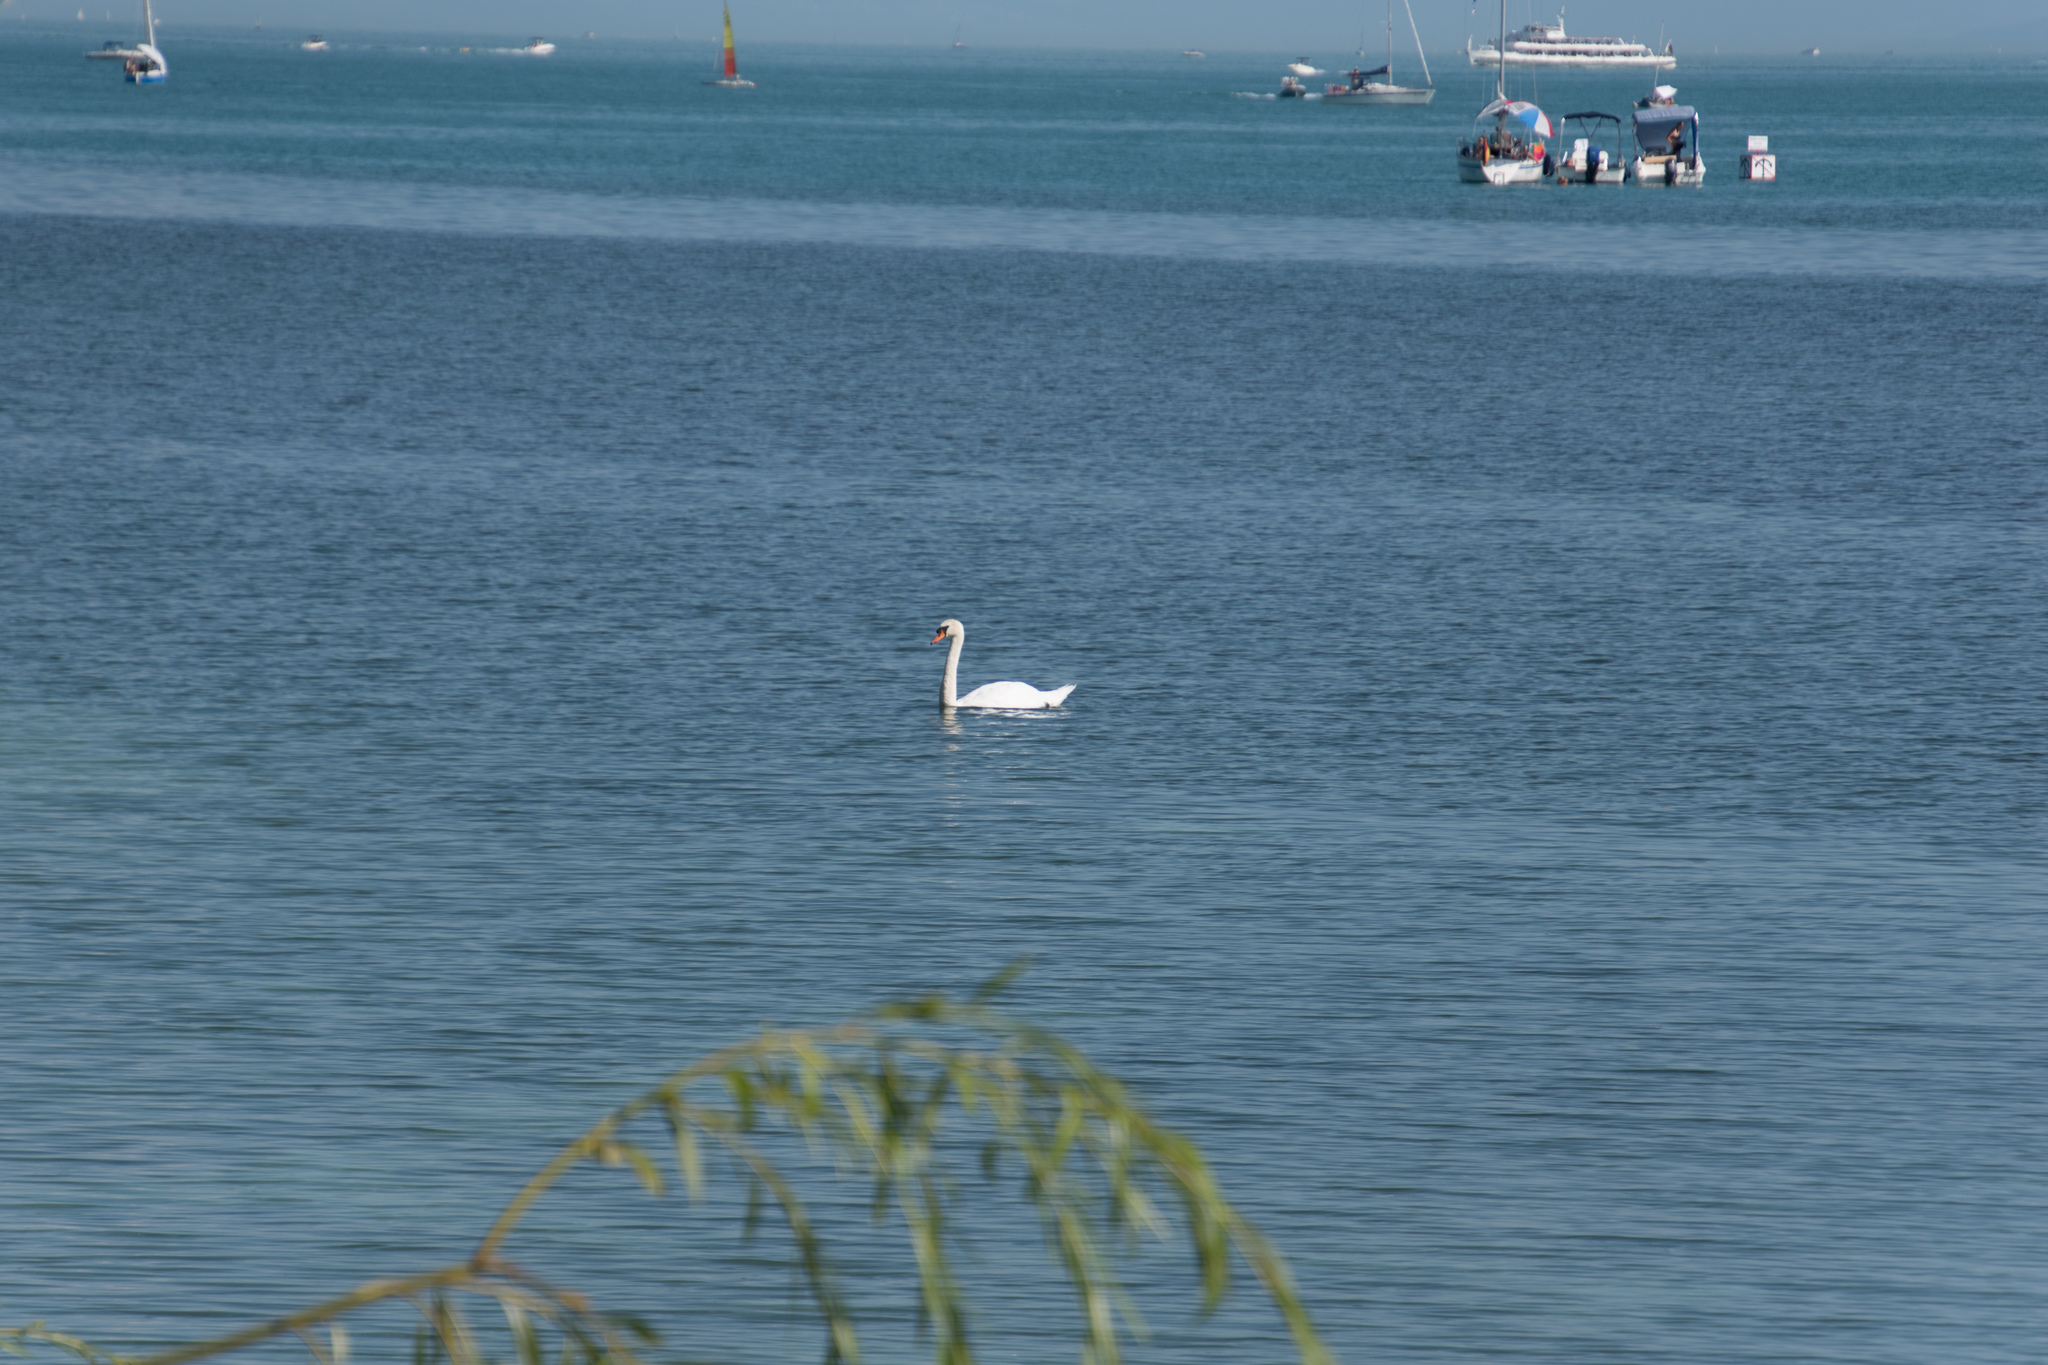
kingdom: Animalia
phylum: Chordata
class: Aves
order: Anseriformes
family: Anatidae
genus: Cygnus
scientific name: Cygnus olor
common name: Mute swan
